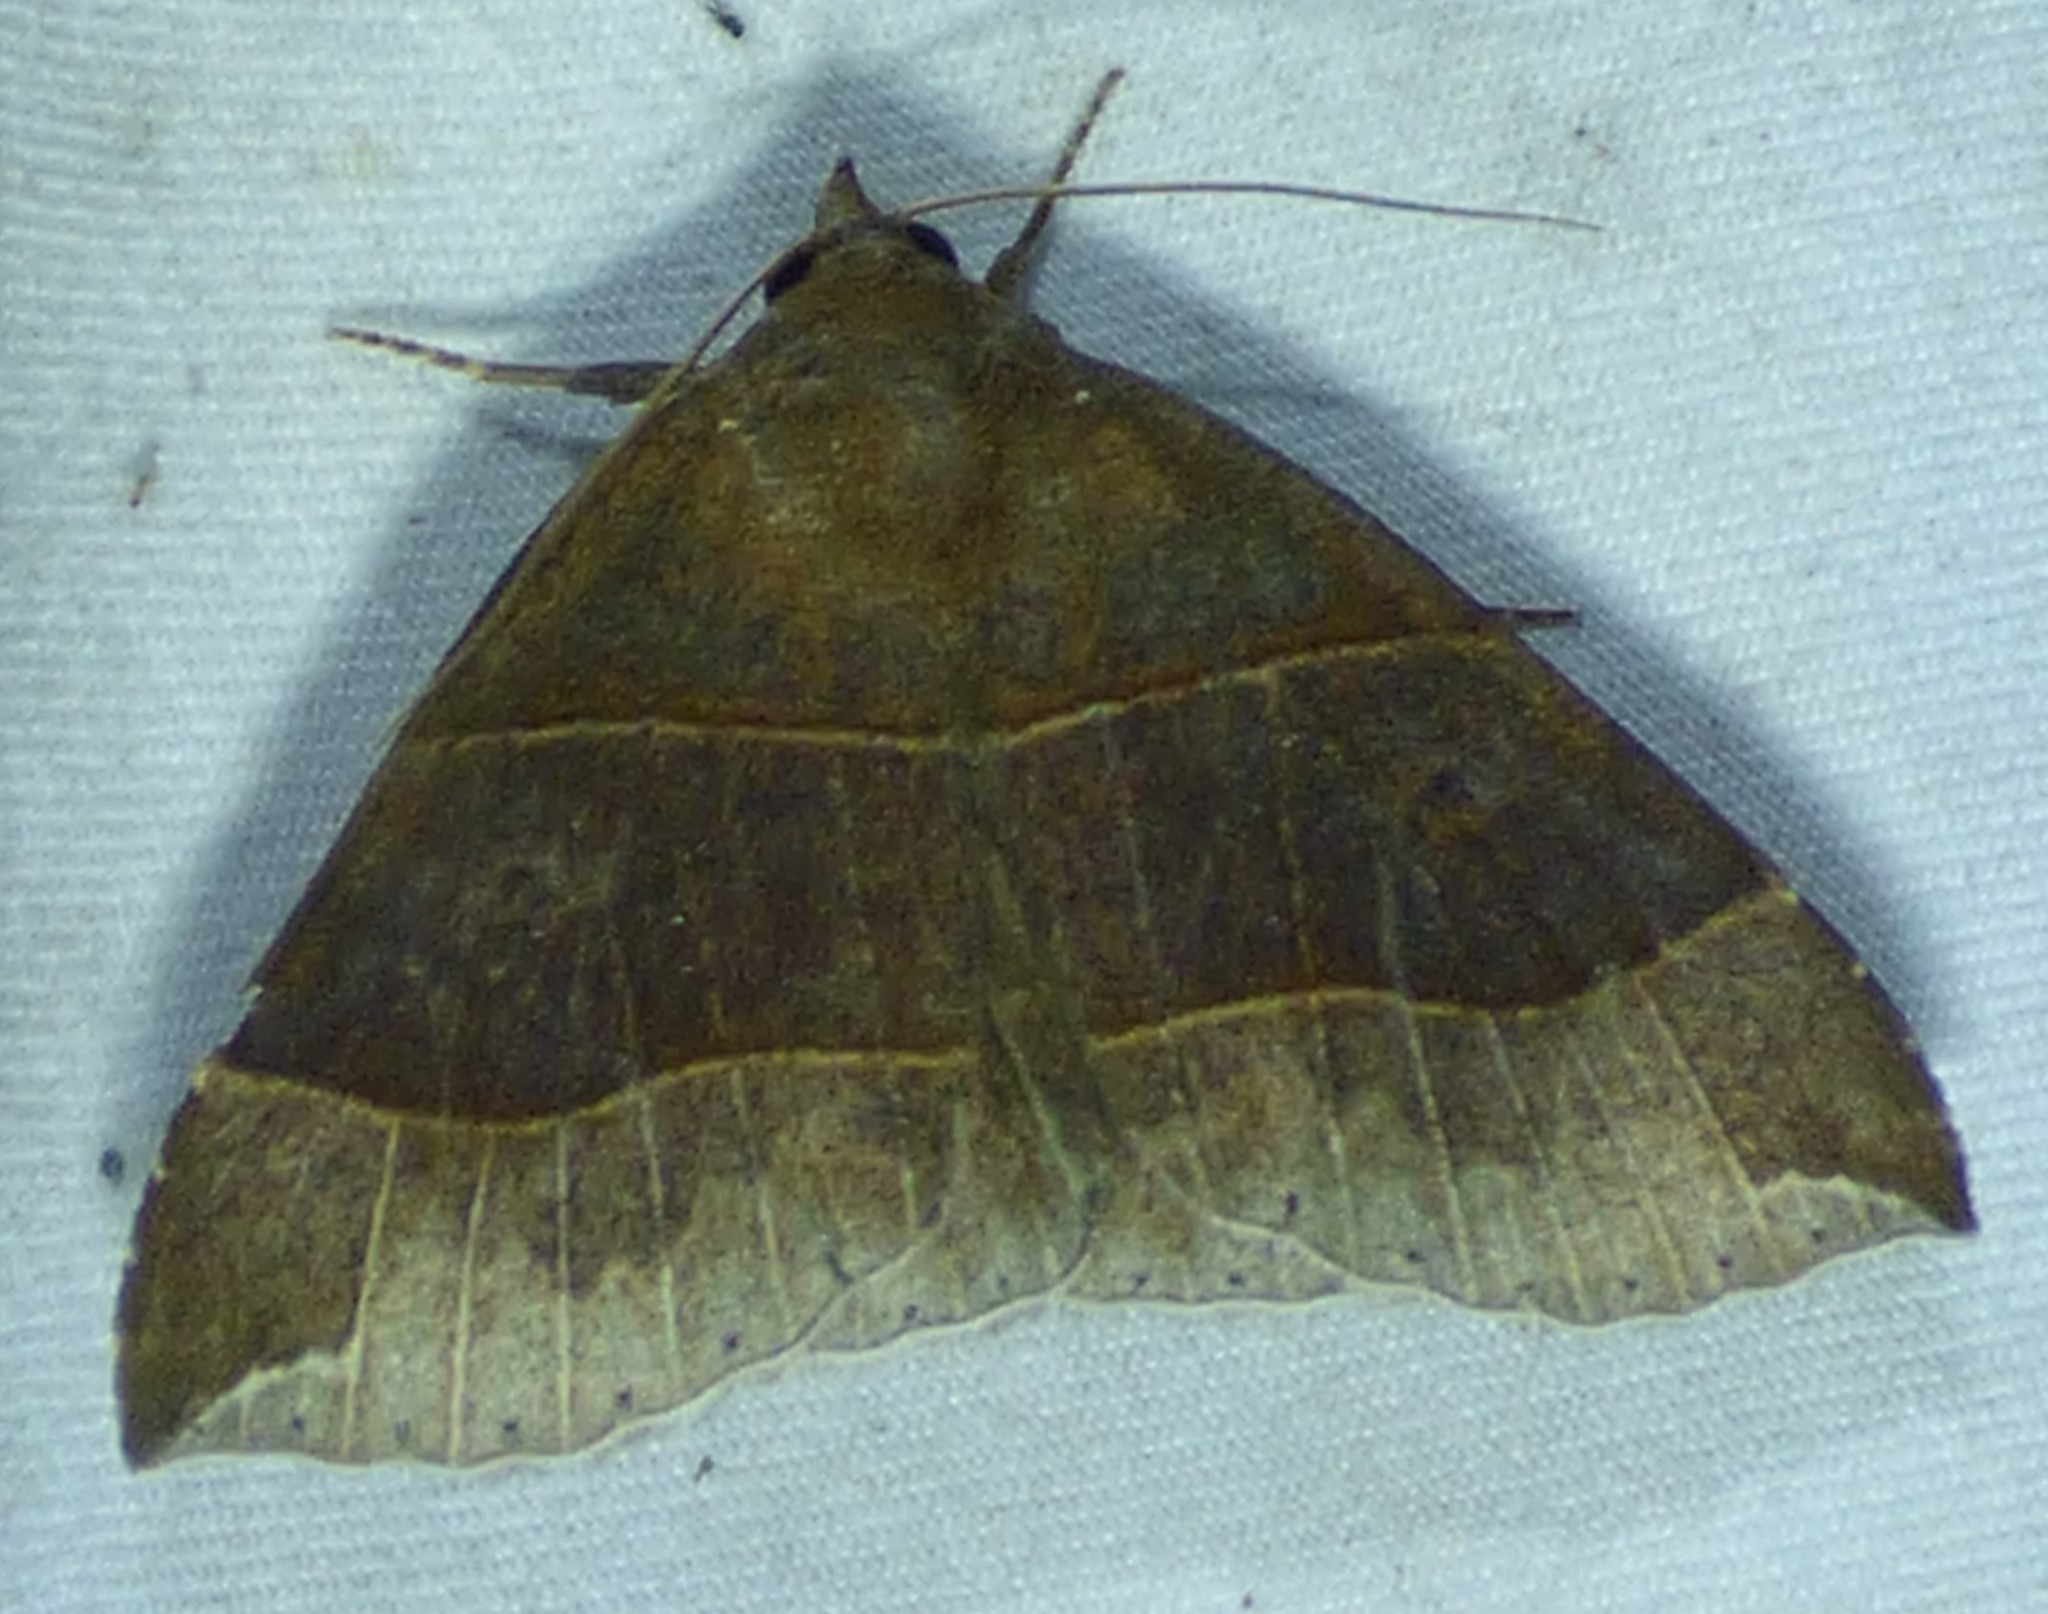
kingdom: Animalia
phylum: Arthropoda
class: Insecta
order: Lepidoptera
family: Erebidae
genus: Parallelia
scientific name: Parallelia bistriaris
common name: Maple looper moth
